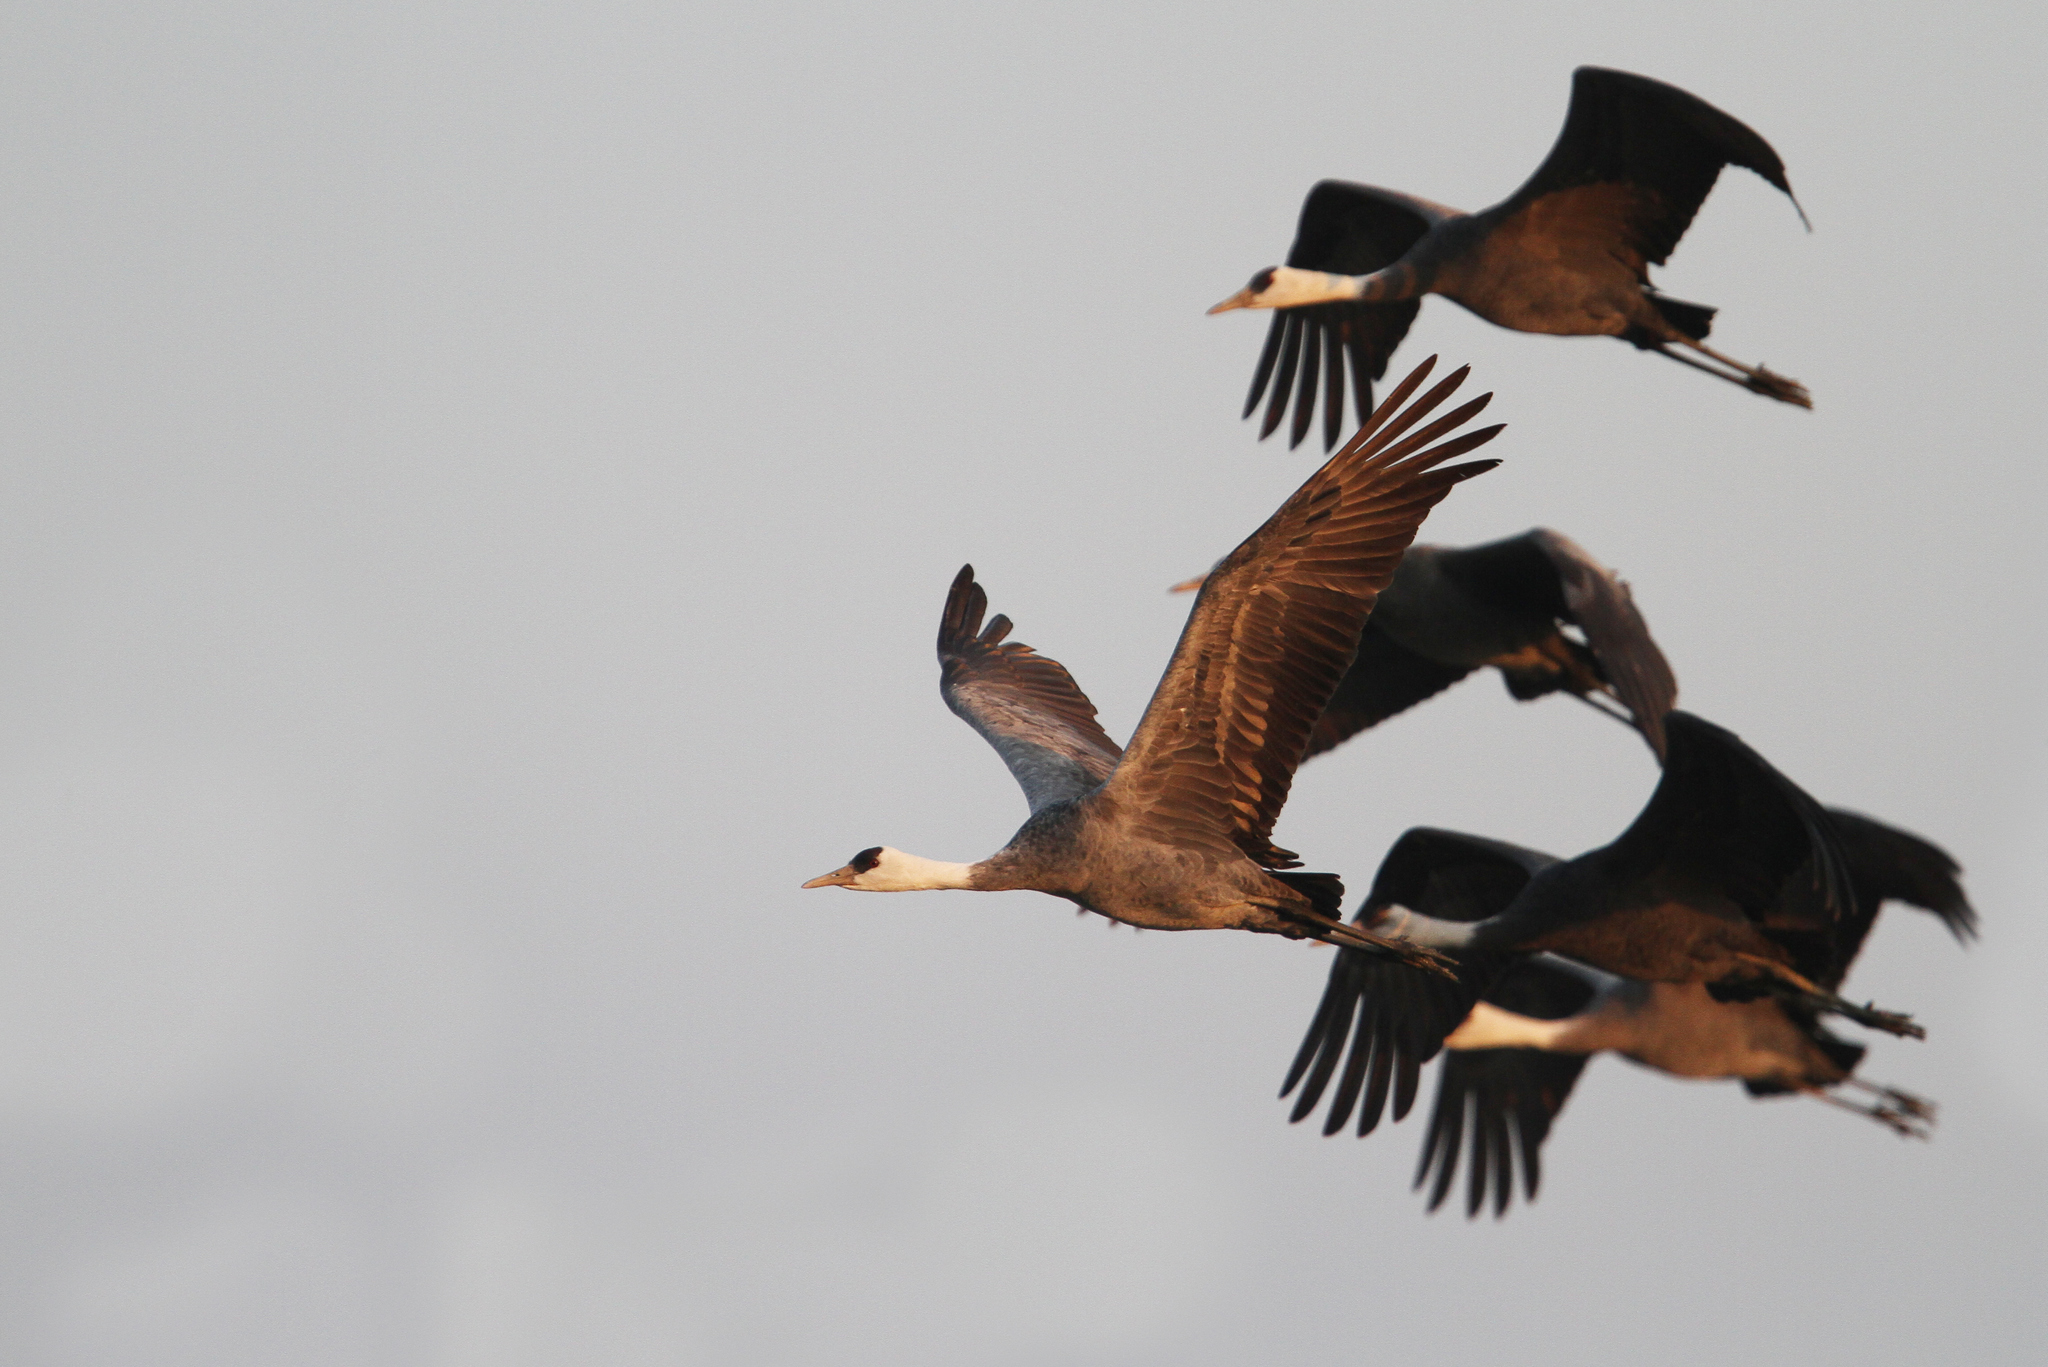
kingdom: Animalia
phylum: Chordata
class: Aves
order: Gruiformes
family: Gruidae
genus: Grus
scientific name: Grus monacha
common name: Hooded crane
